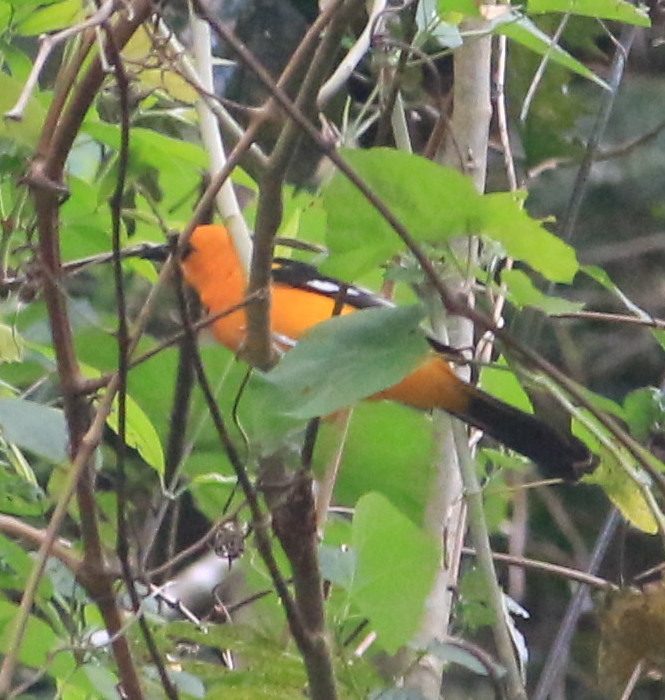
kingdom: Animalia
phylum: Chordata
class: Aves
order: Passeriformes
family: Icteridae
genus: Icterus
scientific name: Icterus gularis
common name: Altamira oriole
